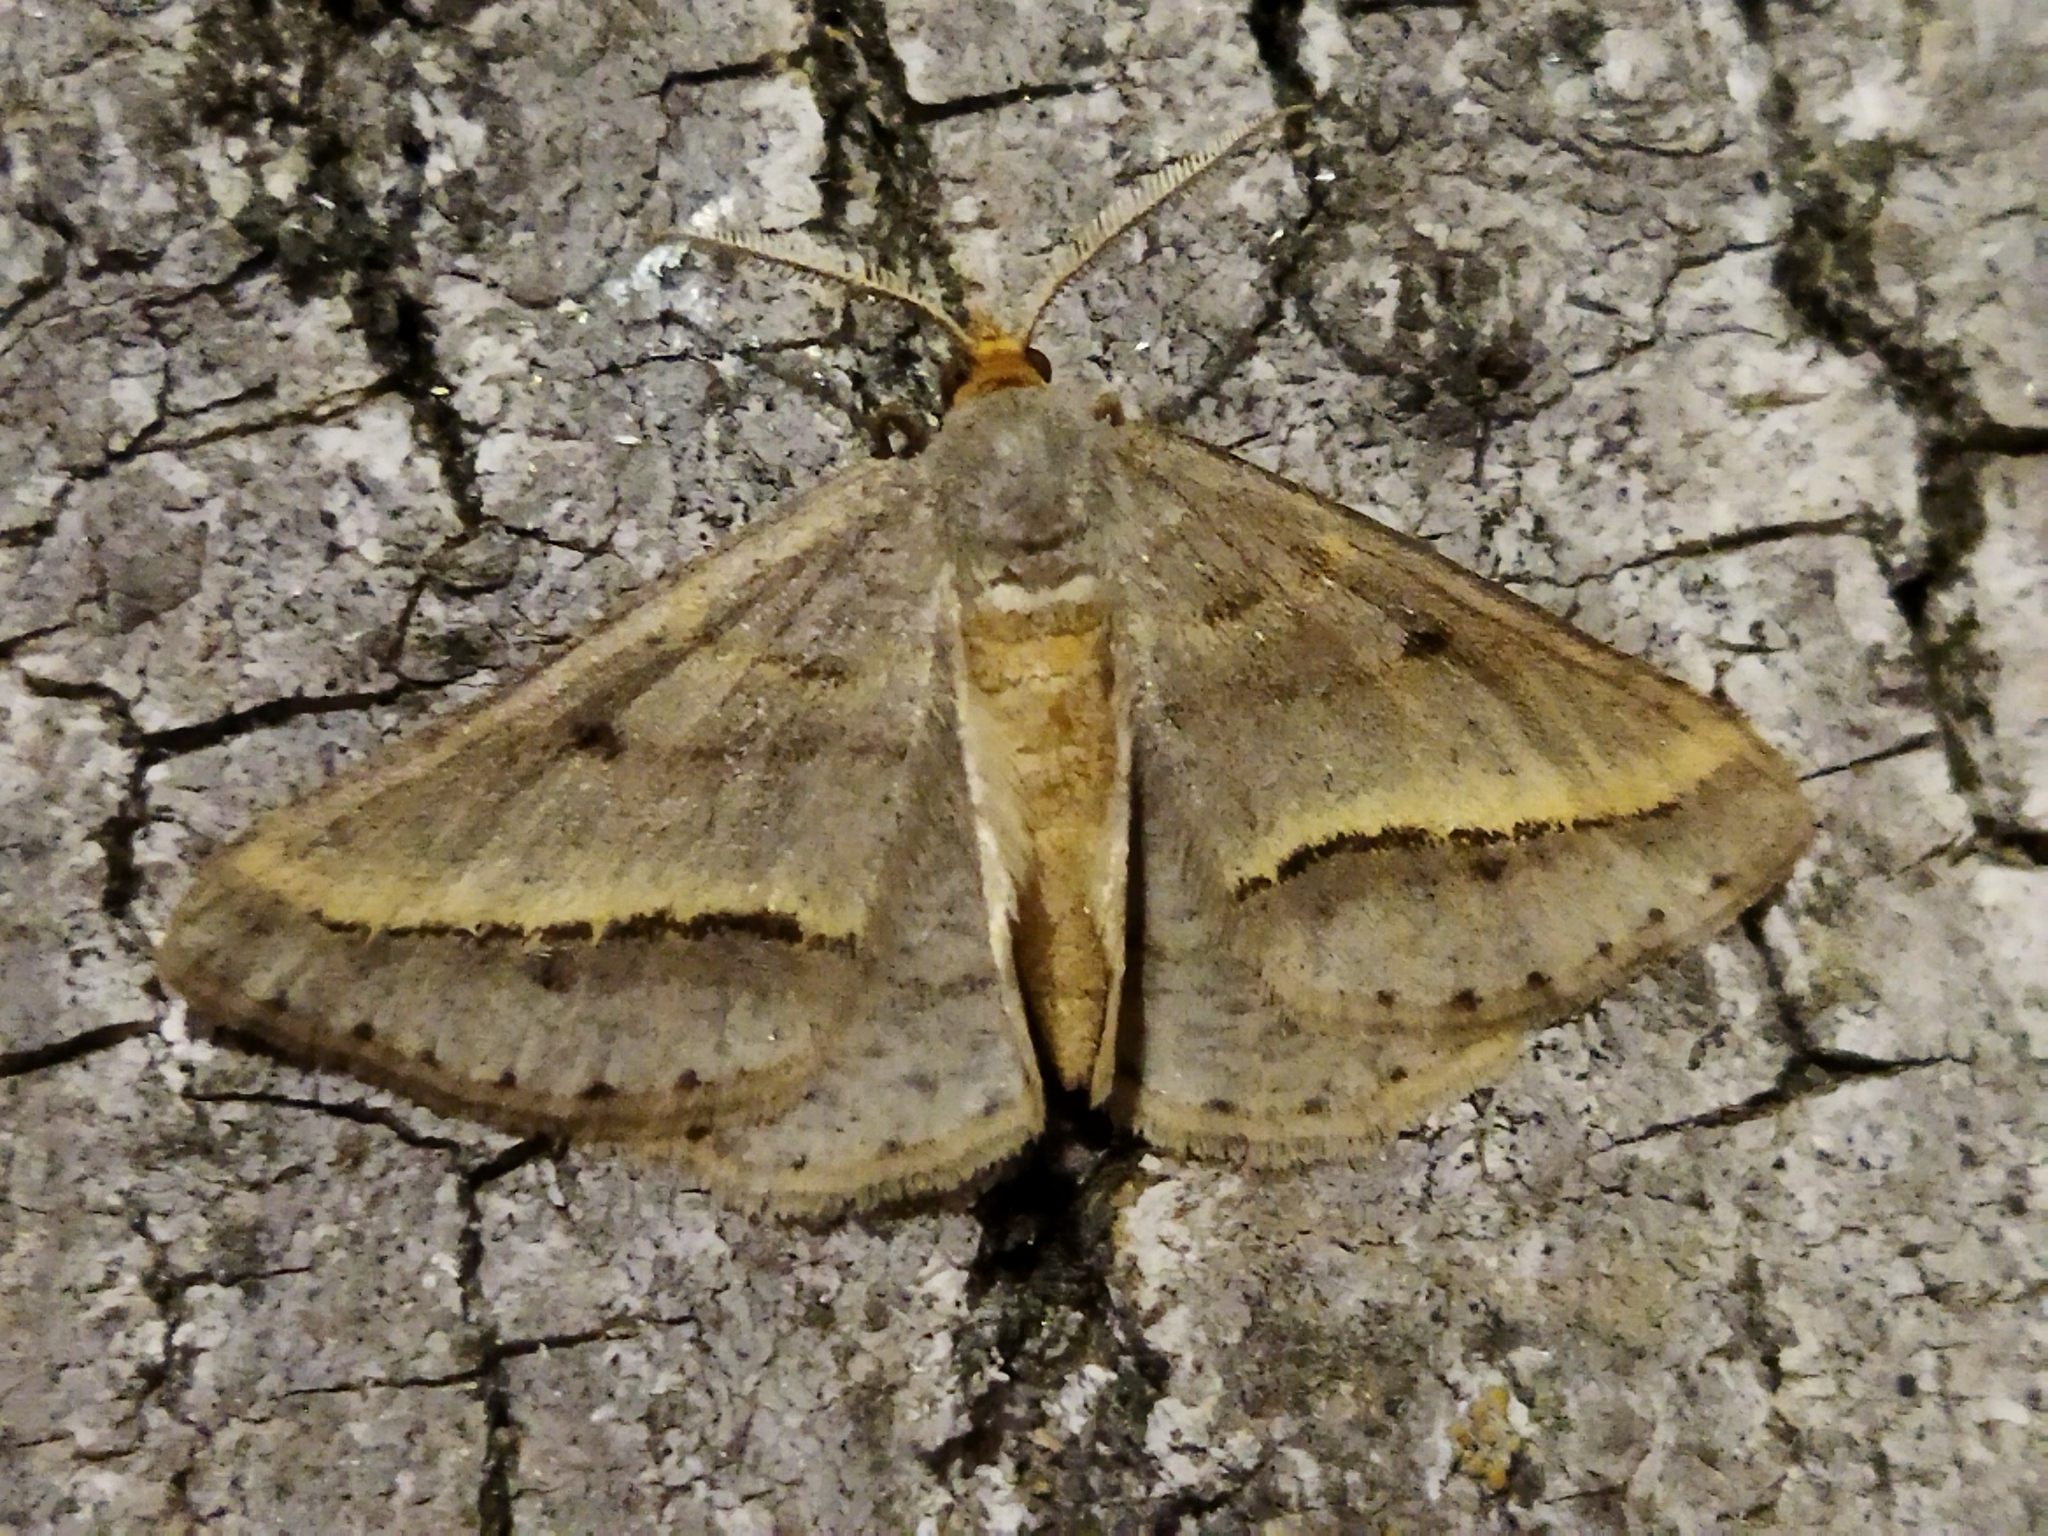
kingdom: Animalia
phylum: Arthropoda
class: Insecta
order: Lepidoptera
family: Geometridae
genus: Tephrina
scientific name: Tephrina arenacearia
